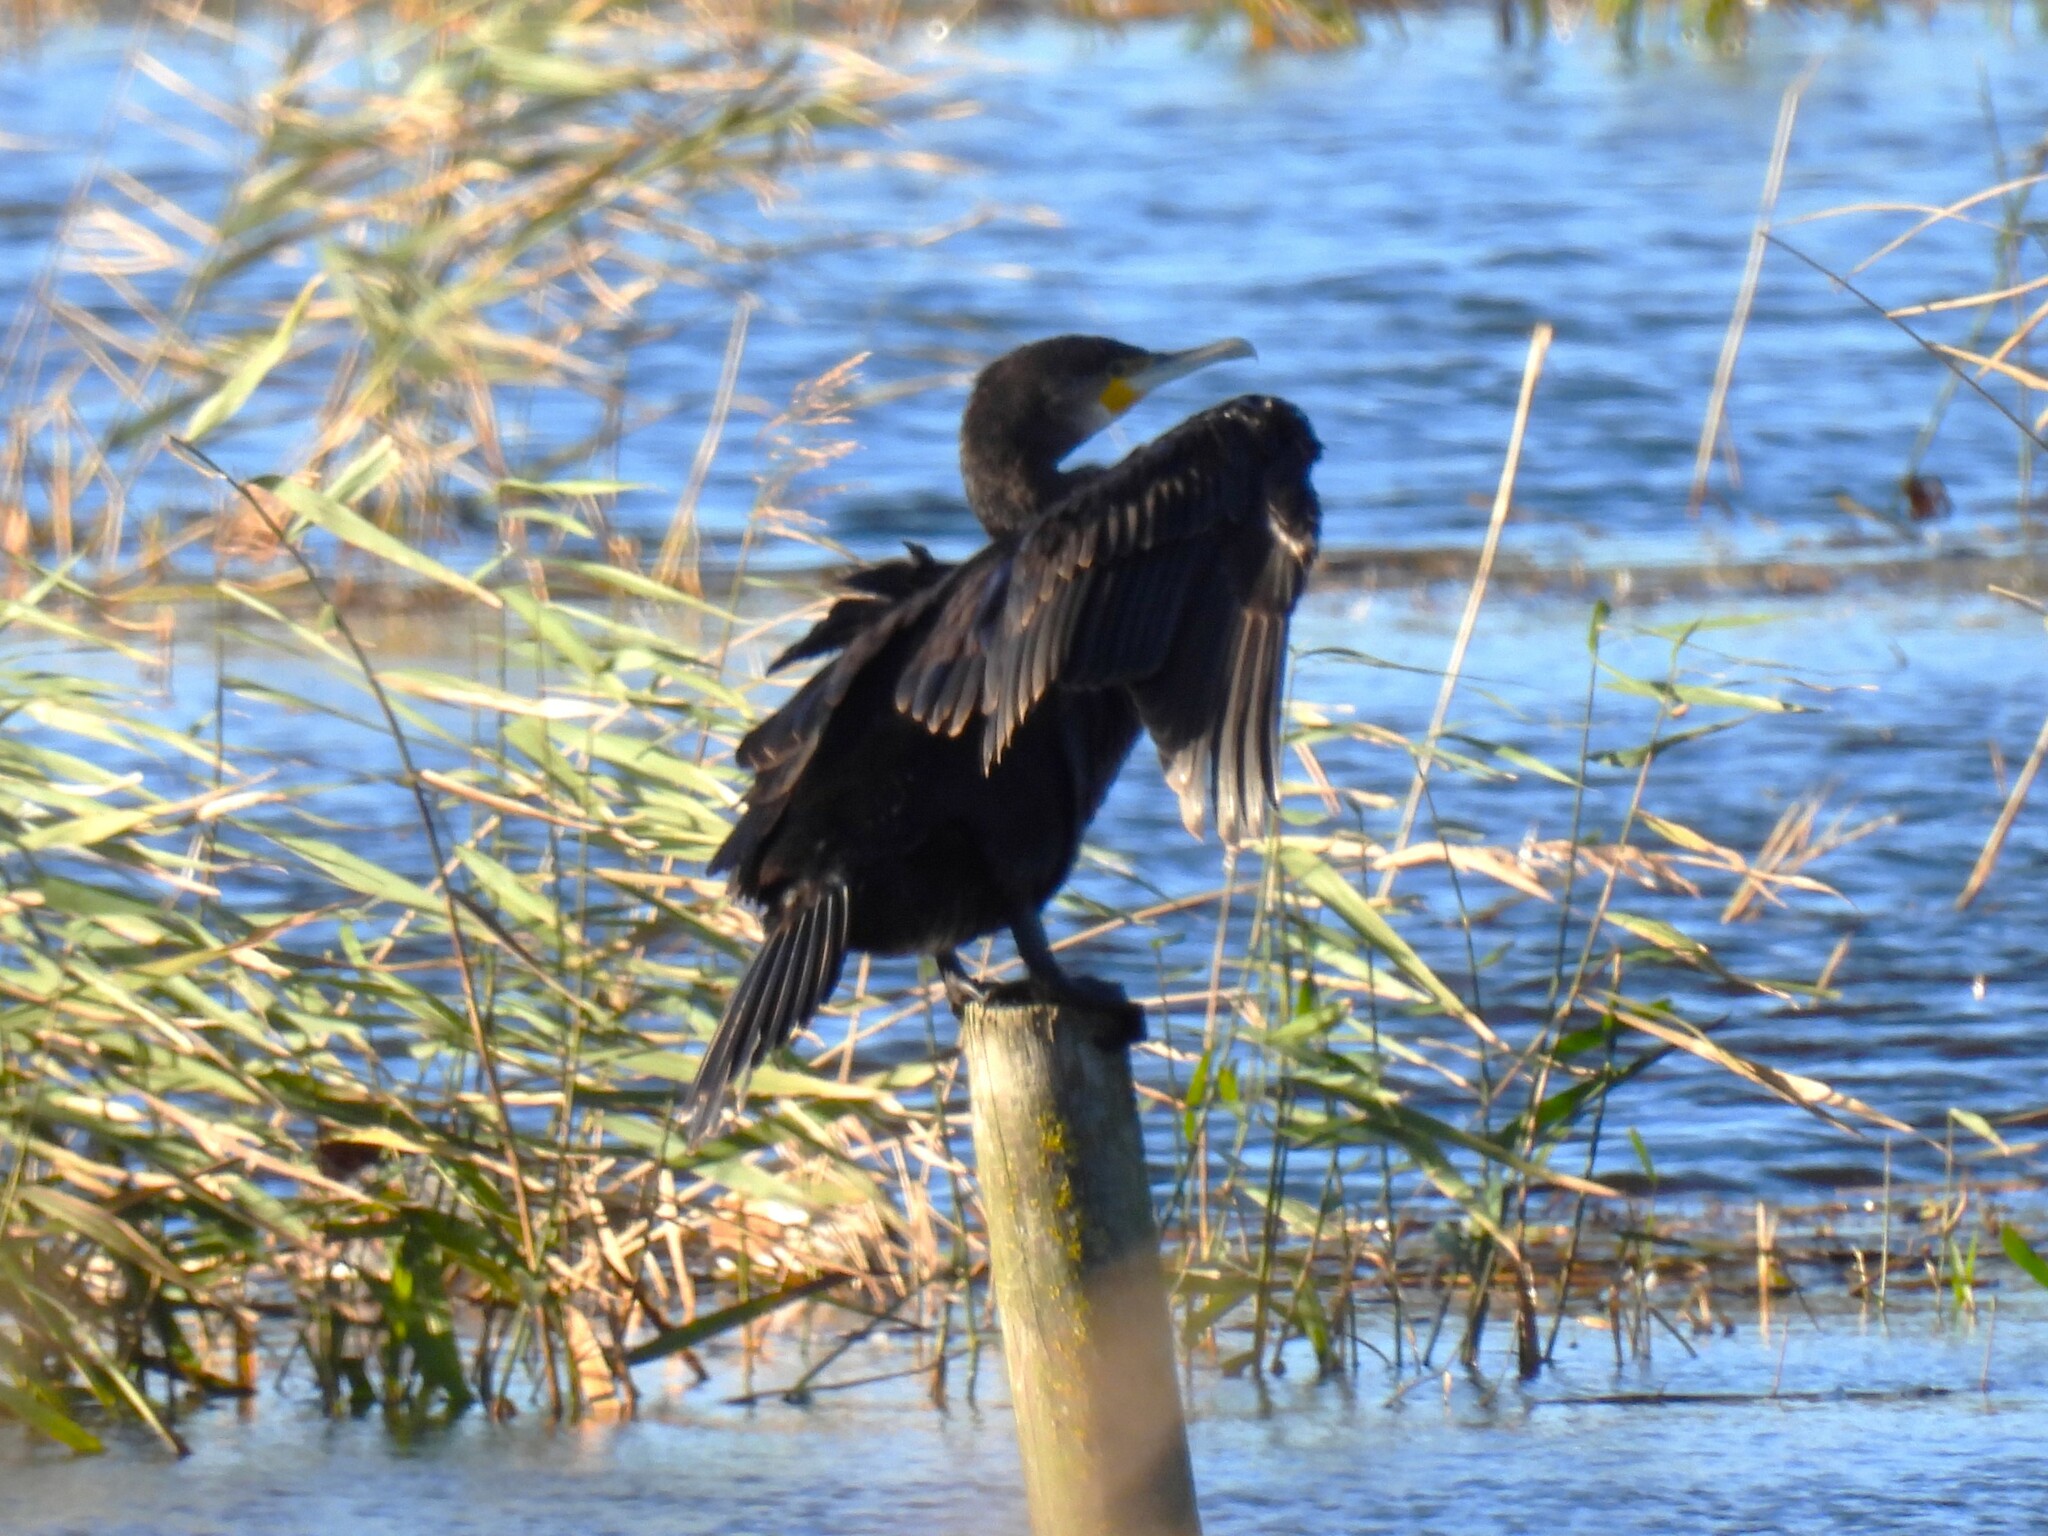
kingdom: Animalia
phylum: Chordata
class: Aves
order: Suliformes
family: Phalacrocoracidae
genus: Phalacrocorax
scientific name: Phalacrocorax carbo
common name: Great cormorant
